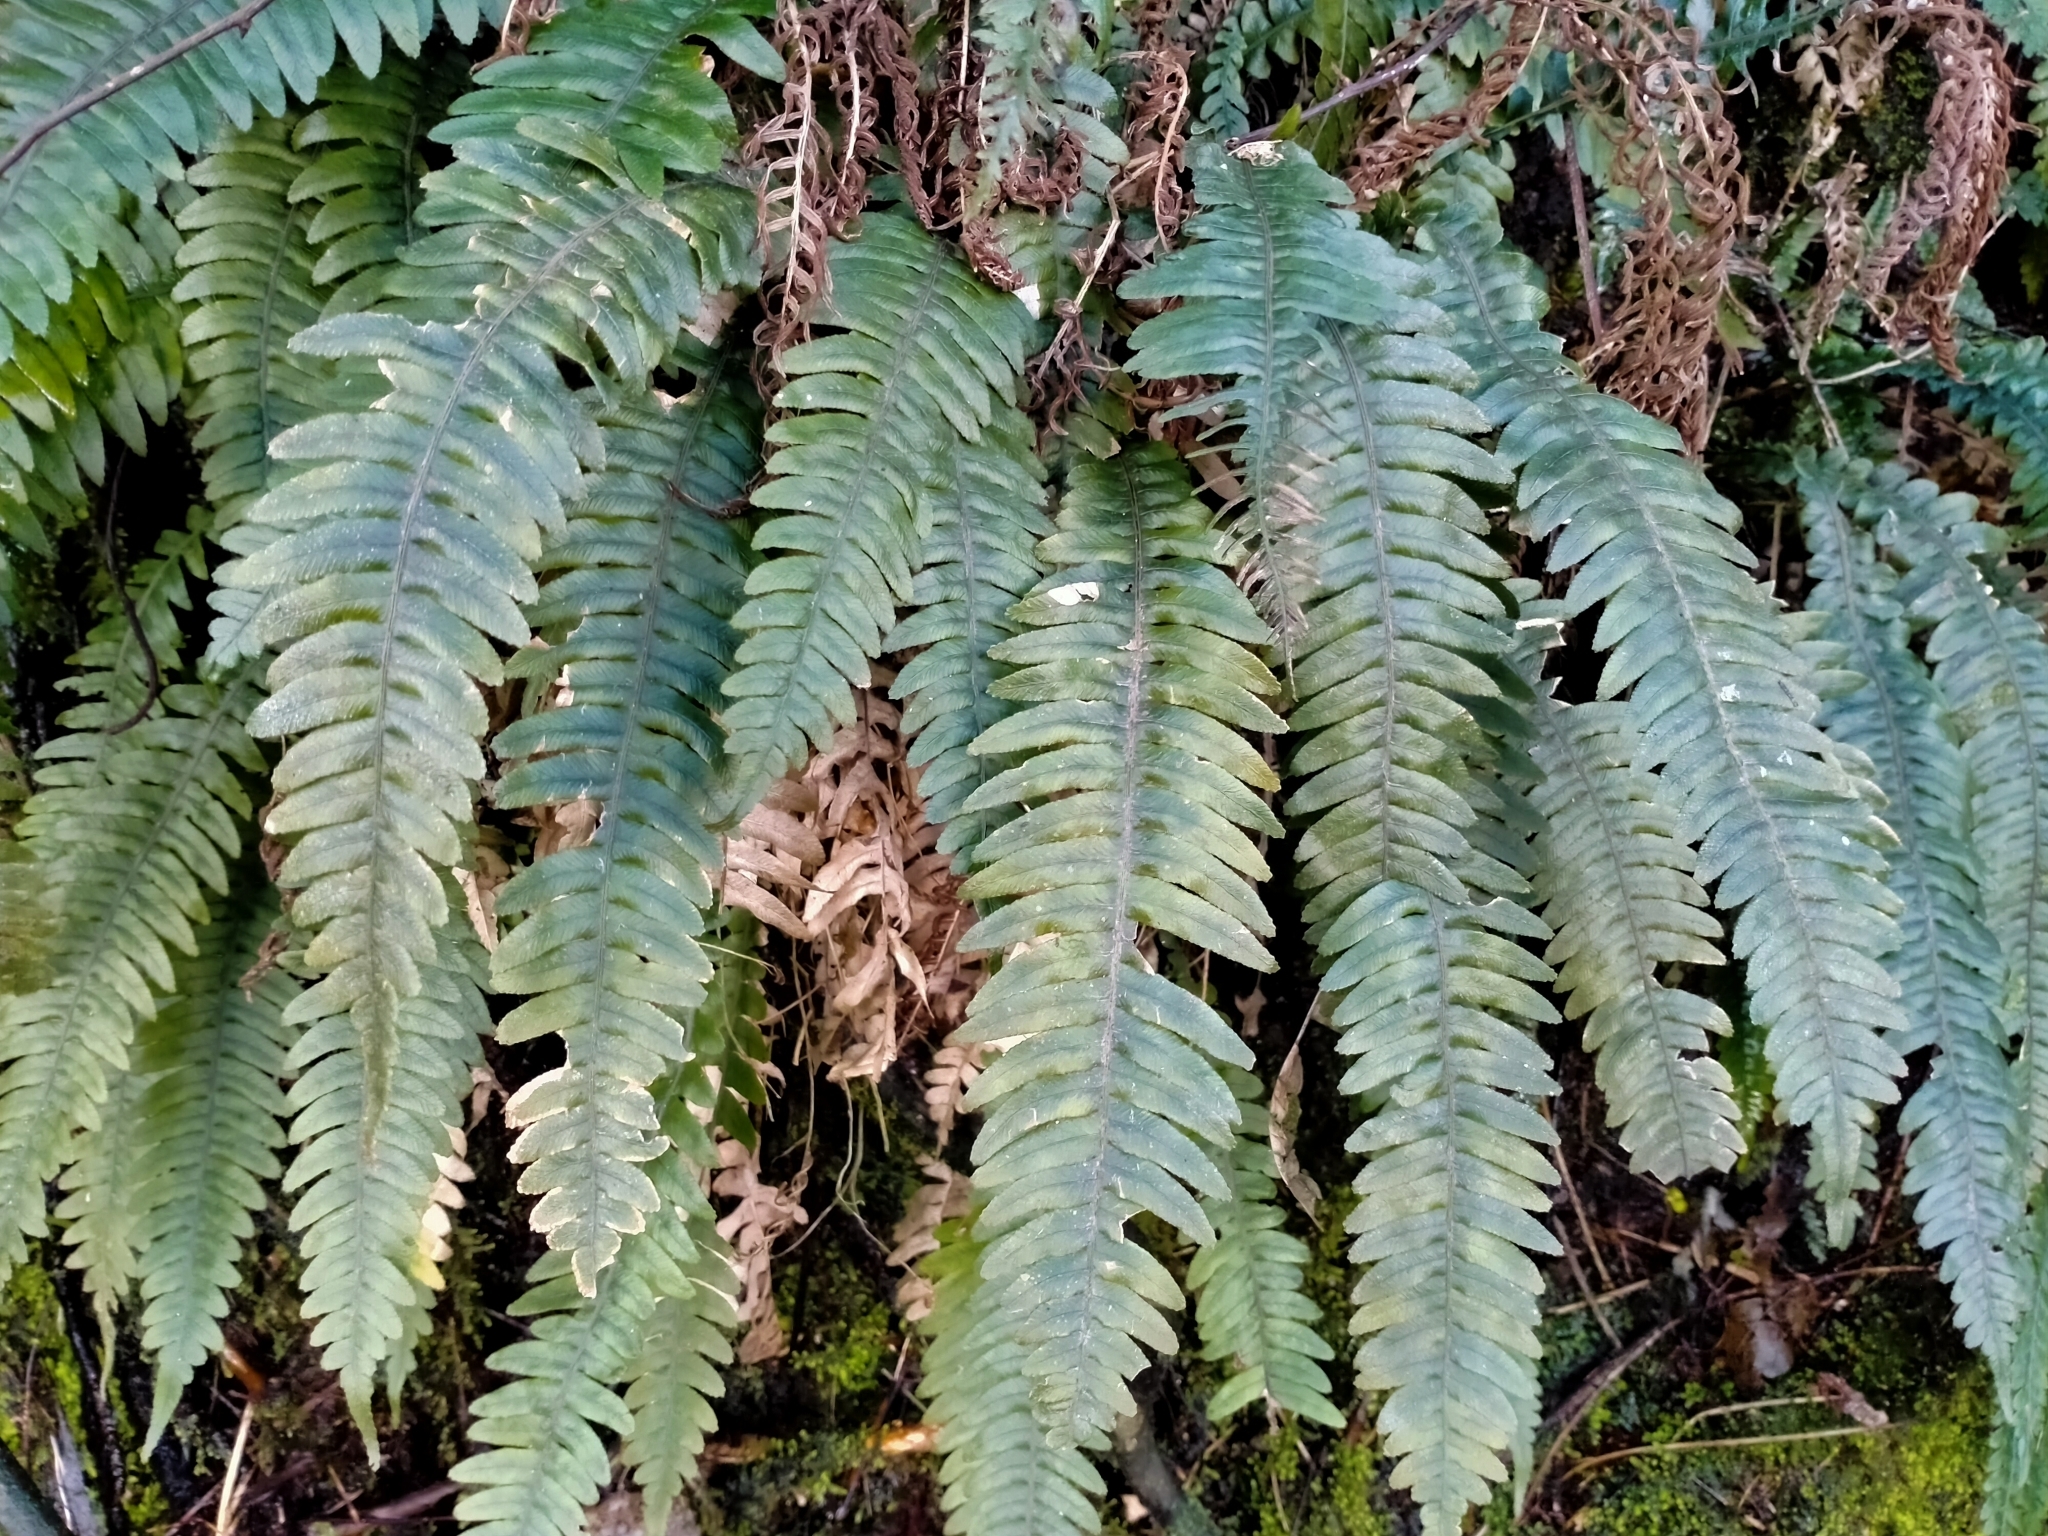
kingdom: Plantae
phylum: Tracheophyta
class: Polypodiopsida
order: Polypodiales
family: Blechnaceae
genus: Austroblechnum
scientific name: Austroblechnum lanceolatum
